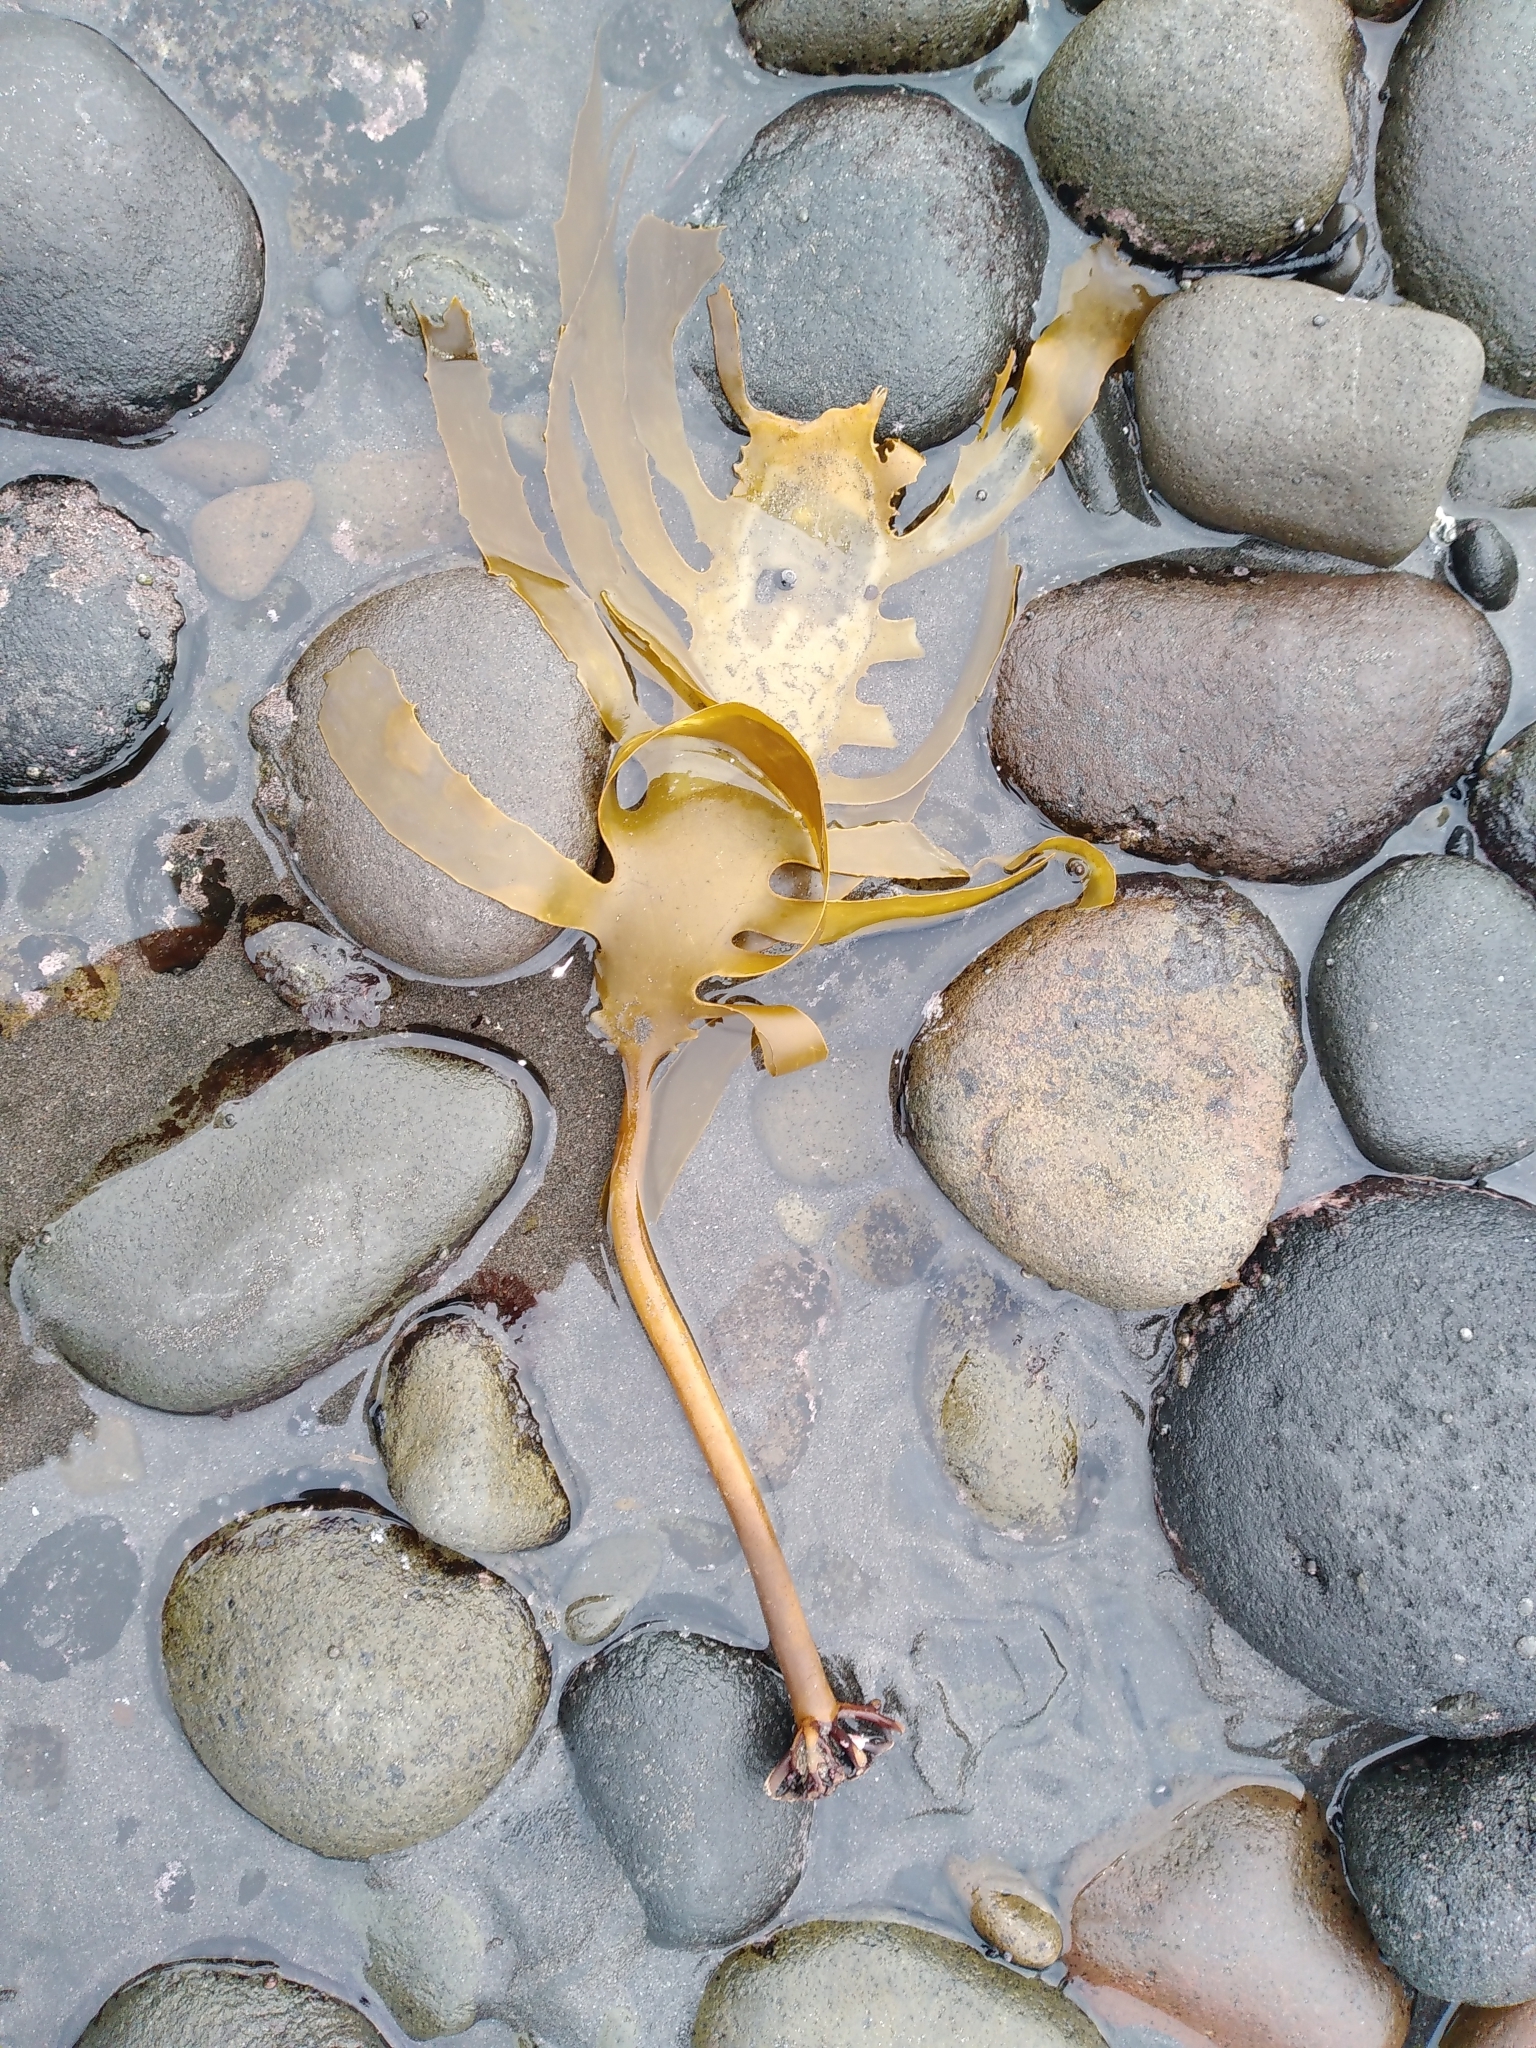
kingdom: Chromista
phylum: Ochrophyta
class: Phaeophyceae
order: Laminariales
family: Lessoniaceae
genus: Ecklonia
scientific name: Ecklonia radiata
